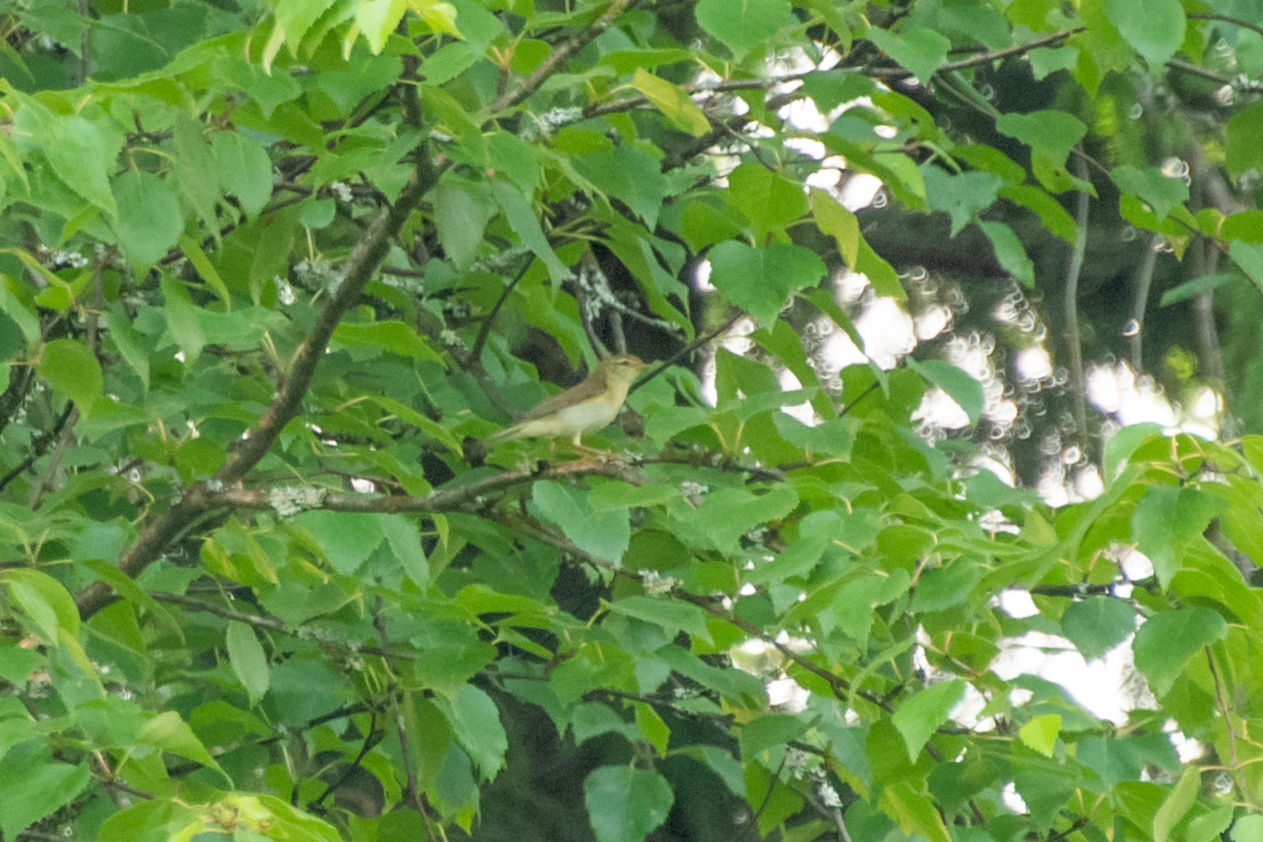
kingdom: Animalia
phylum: Chordata
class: Aves
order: Passeriformes
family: Phylloscopidae
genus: Phylloscopus
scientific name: Phylloscopus trochilus
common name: Willow warbler
